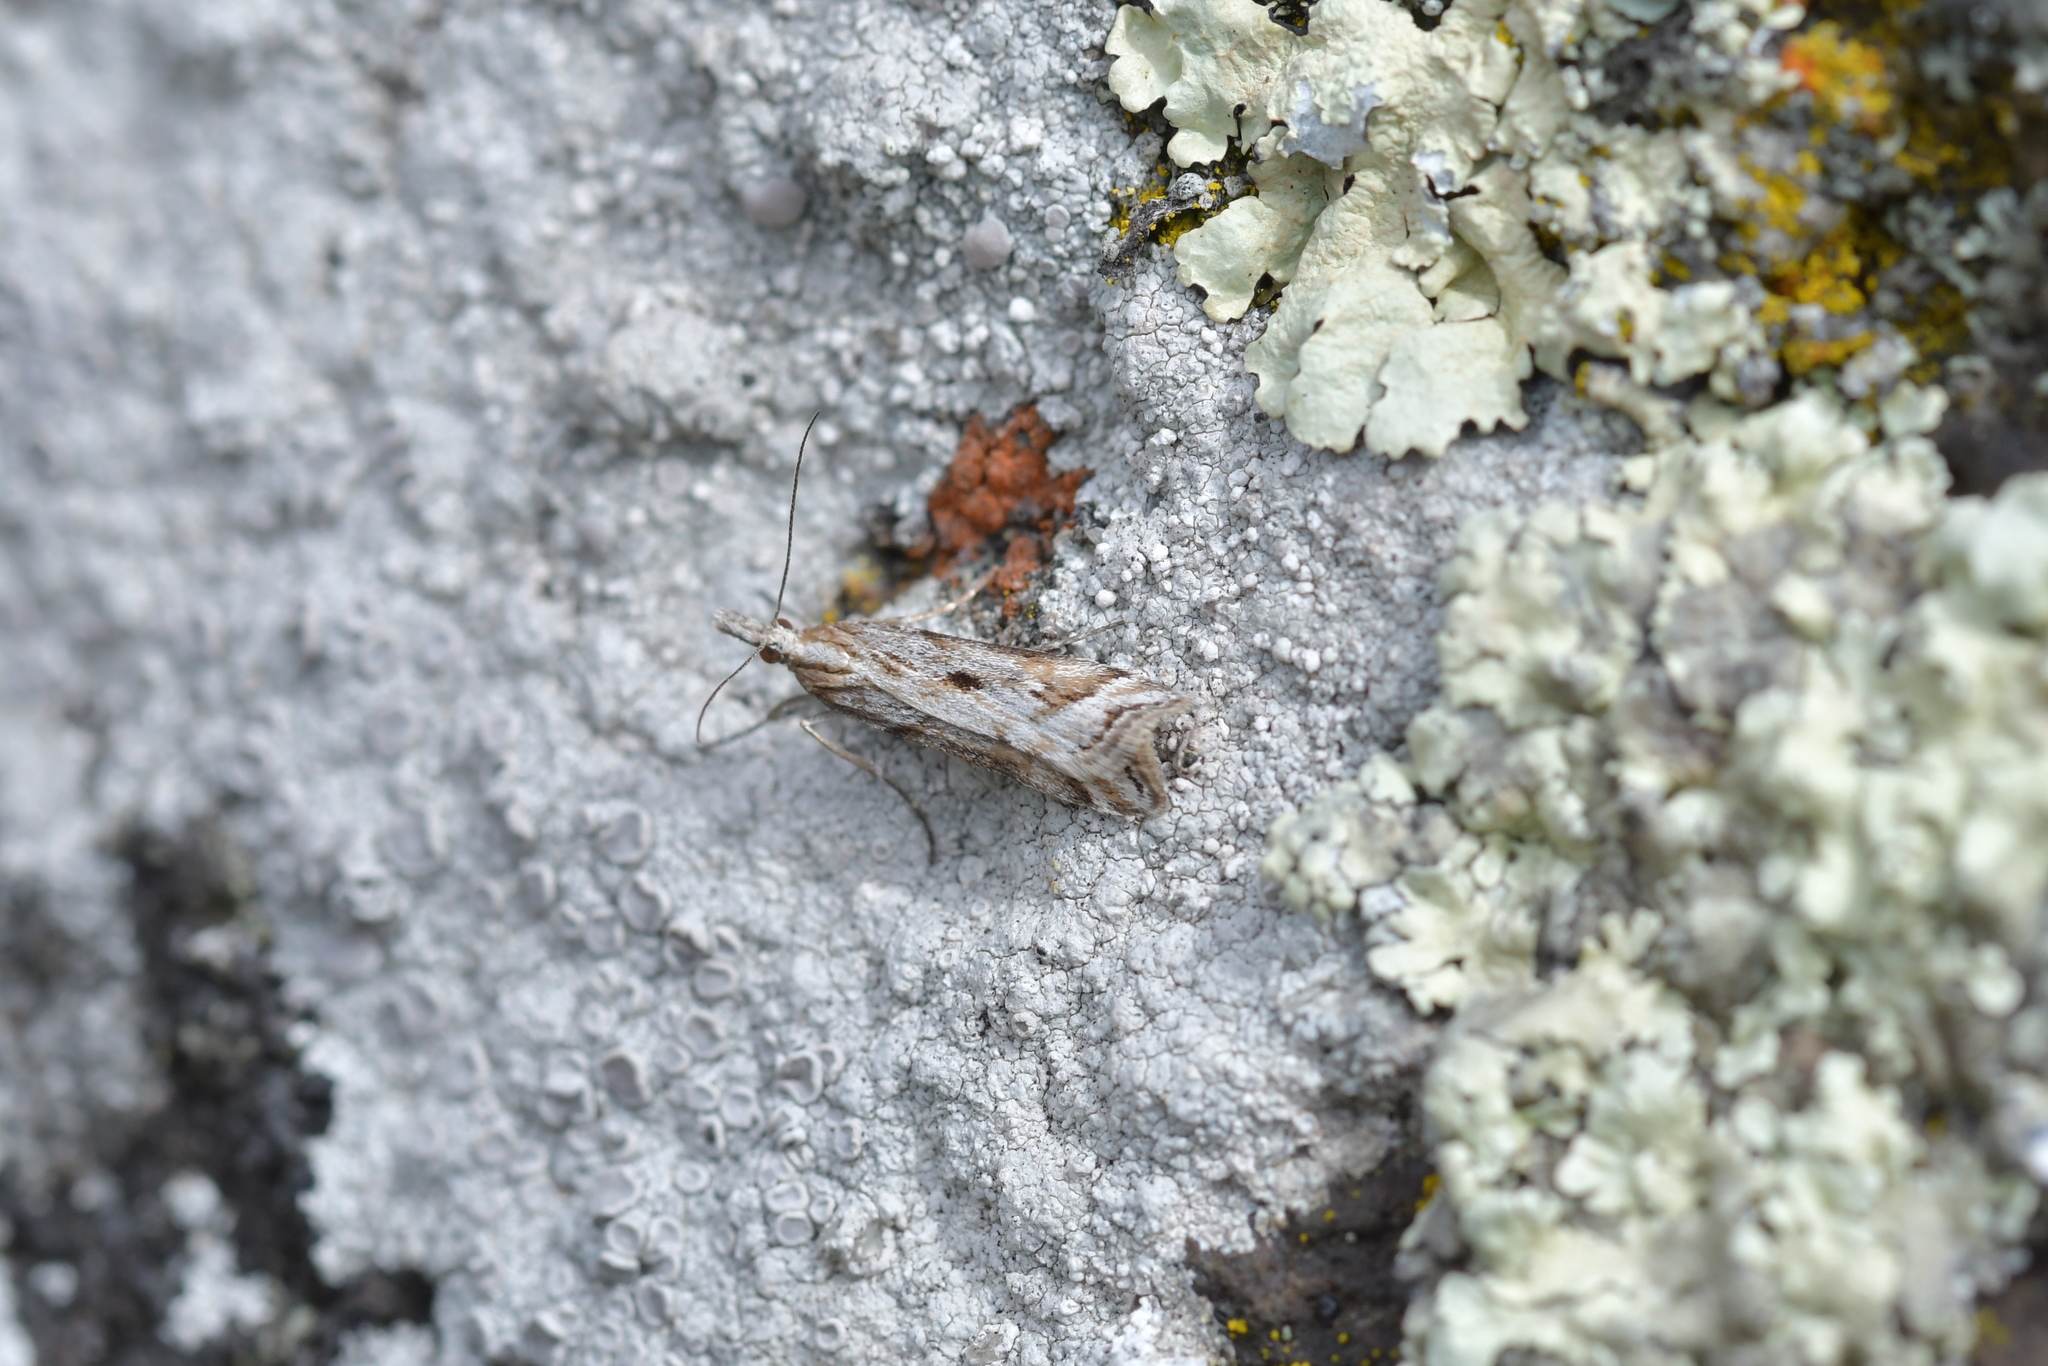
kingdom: Animalia
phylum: Arthropoda
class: Insecta
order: Lepidoptera
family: Crambidae
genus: Scoparia
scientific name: Scoparia exilis
